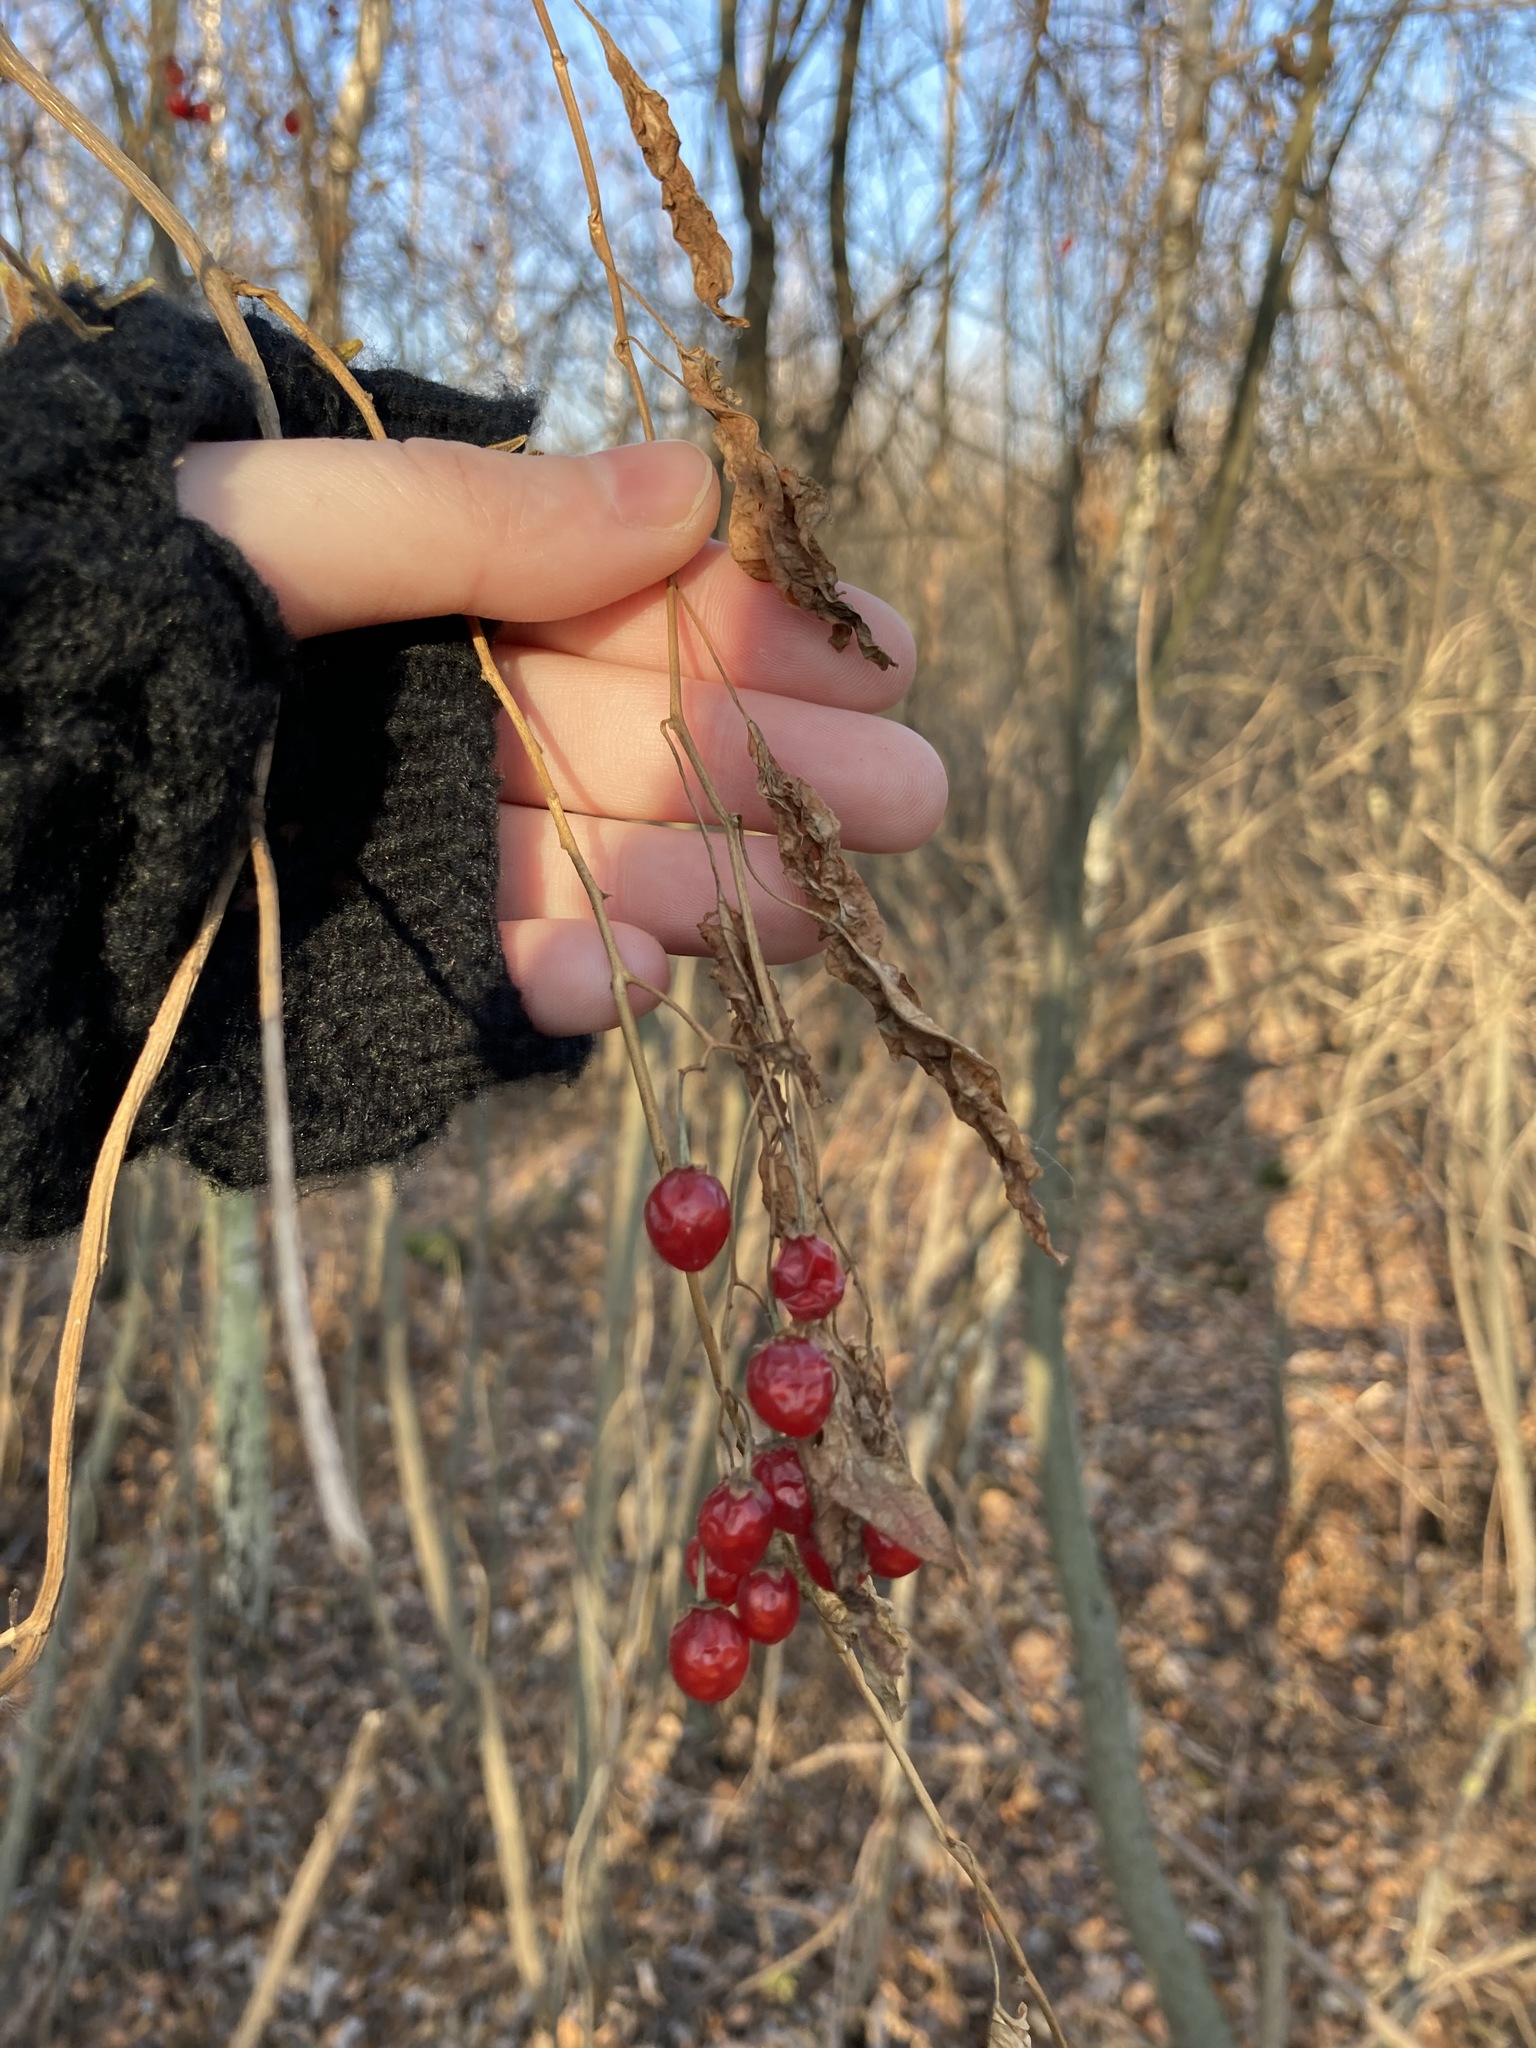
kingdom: Plantae
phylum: Tracheophyta
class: Magnoliopsida
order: Dipsacales
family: Viburnaceae
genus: Viburnum
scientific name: Viburnum opulus
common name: Guelder-rose
